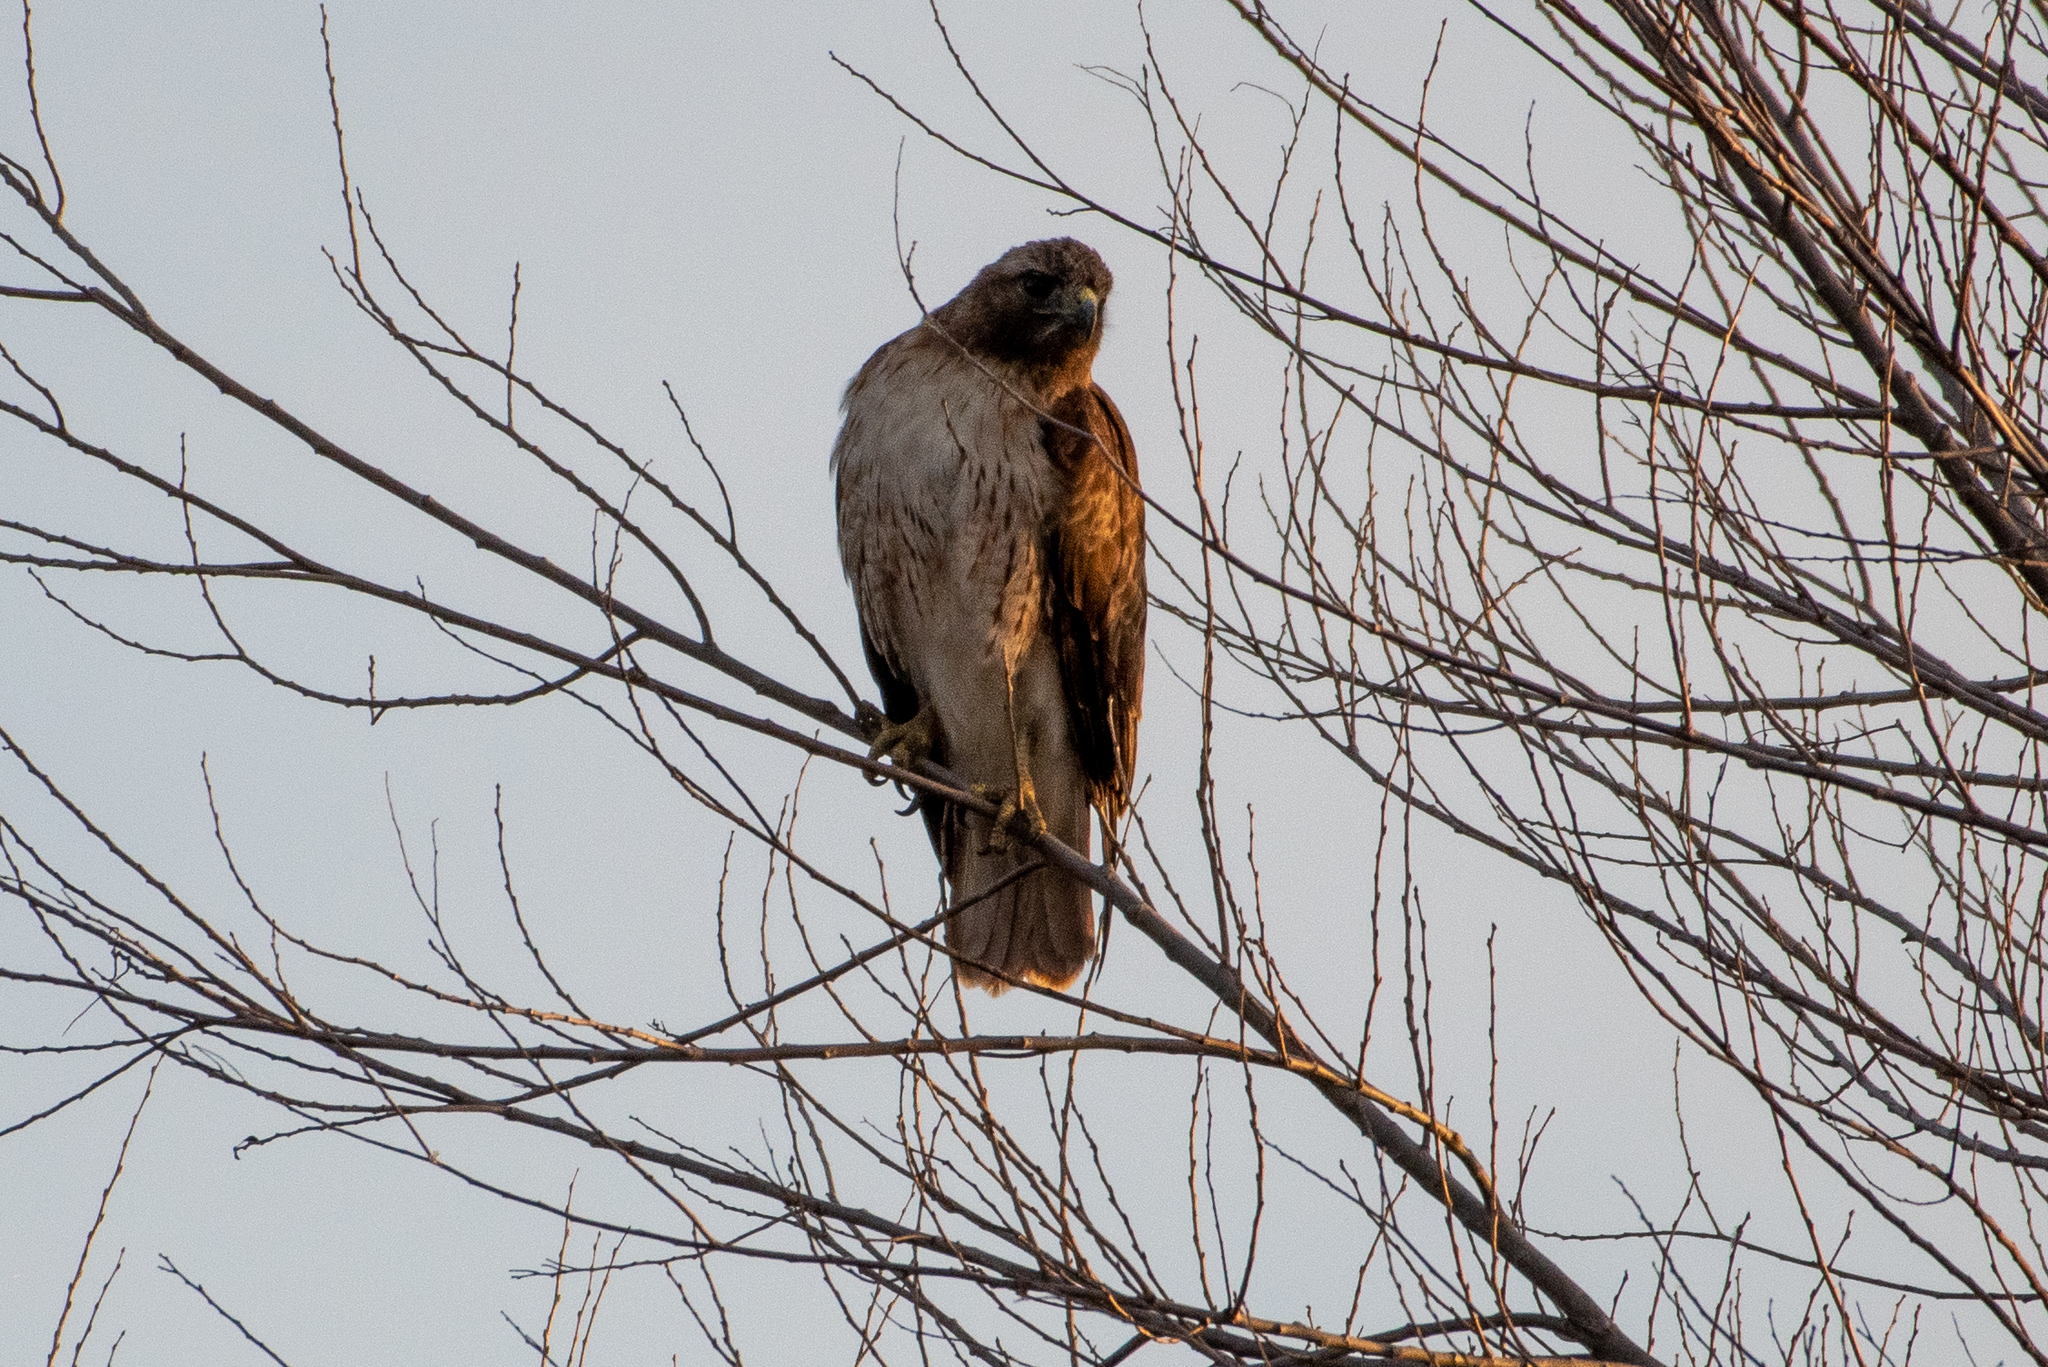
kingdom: Animalia
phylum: Chordata
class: Aves
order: Accipitriformes
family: Accipitridae
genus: Buteo
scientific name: Buteo jamaicensis
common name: Red-tailed hawk
